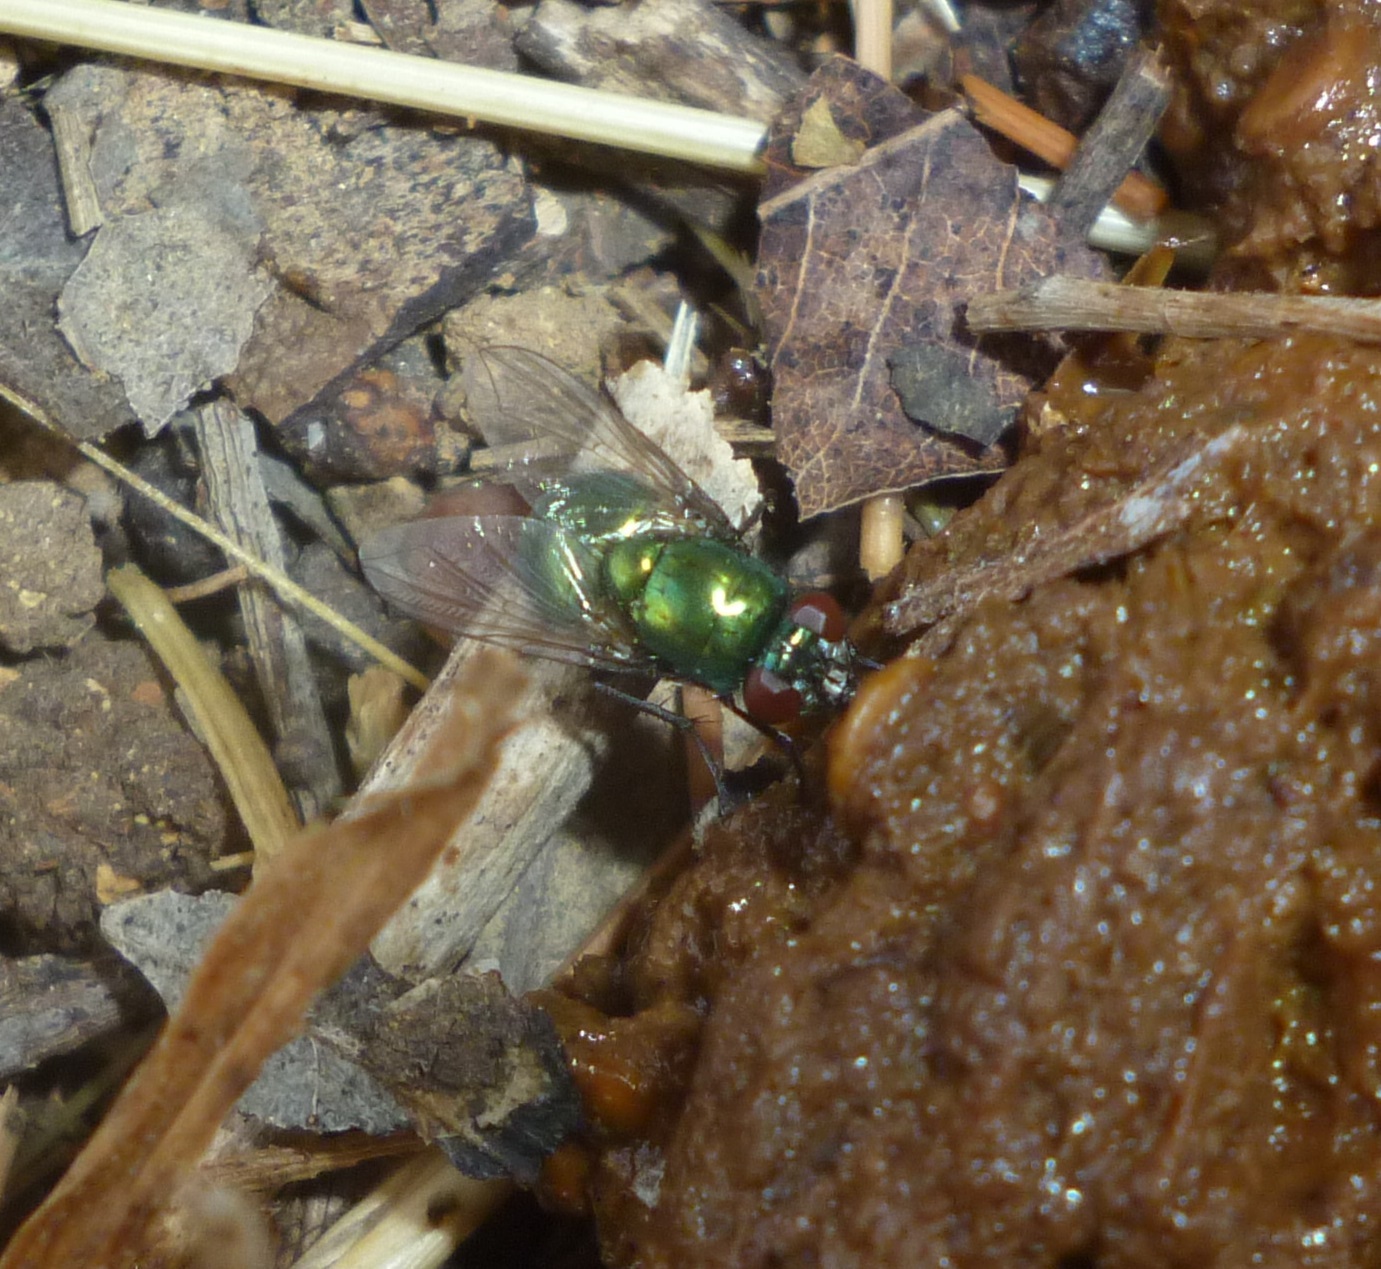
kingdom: Animalia
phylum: Arthropoda
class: Insecta
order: Diptera
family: Muscidae
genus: Neomyia
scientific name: Neomyia cornicina
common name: House fly
